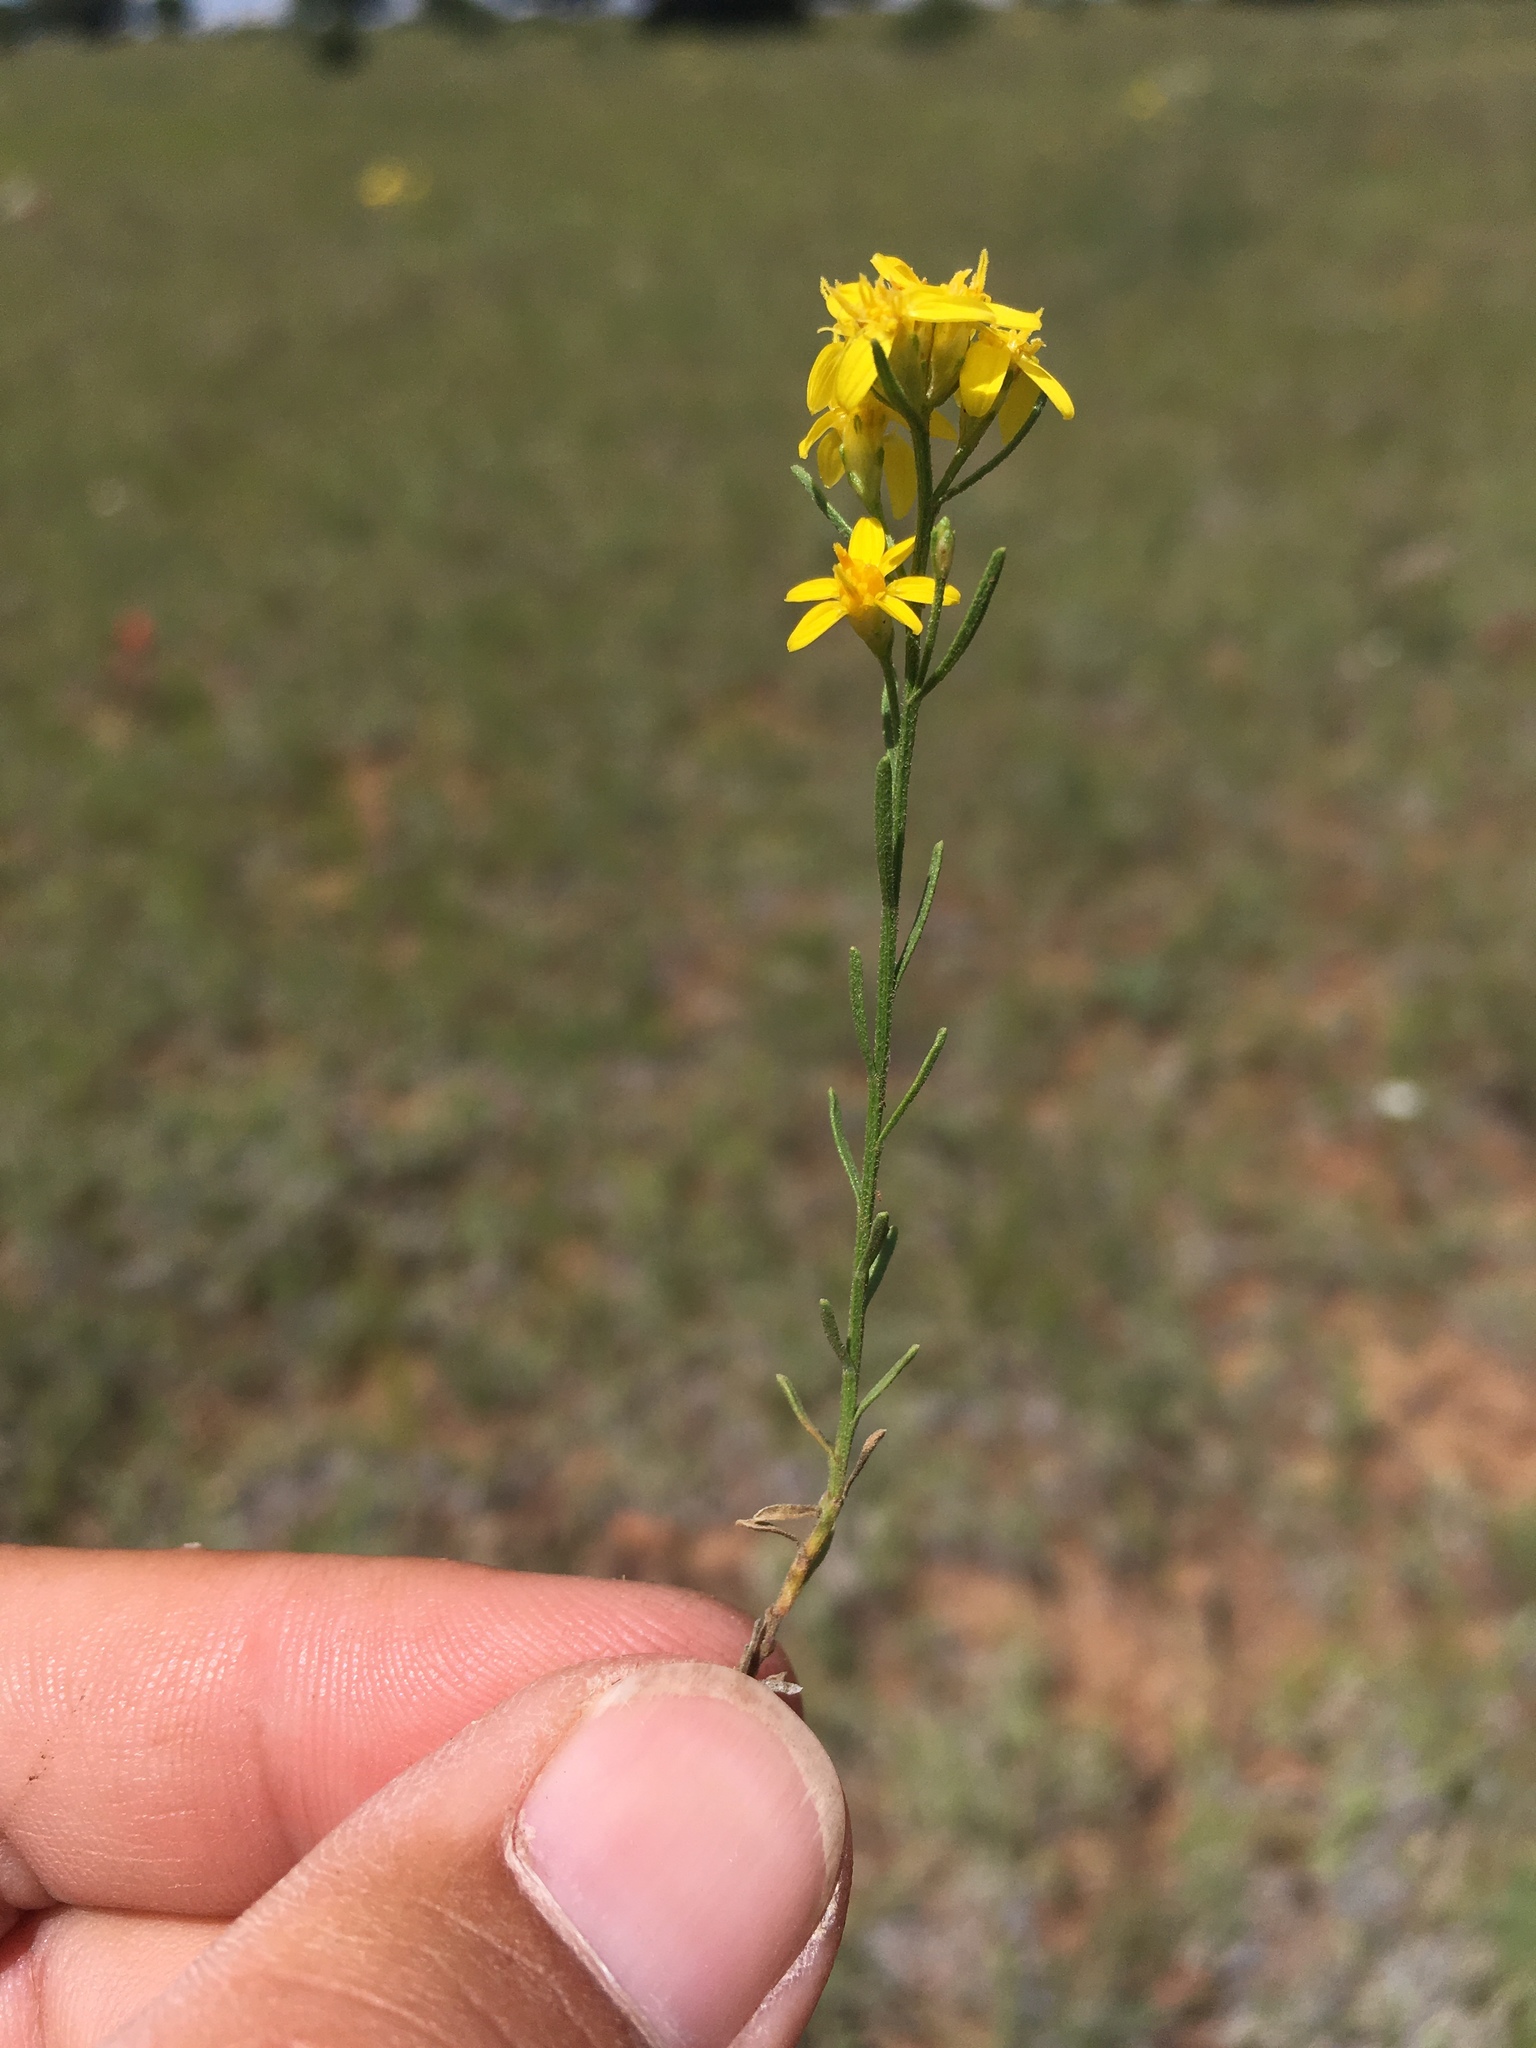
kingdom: Plantae
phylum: Tracheophyta
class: Magnoliopsida
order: Asterales
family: Asteraceae
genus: Gutierrezia
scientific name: Gutierrezia sarothrae
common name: Broom snakeweed
